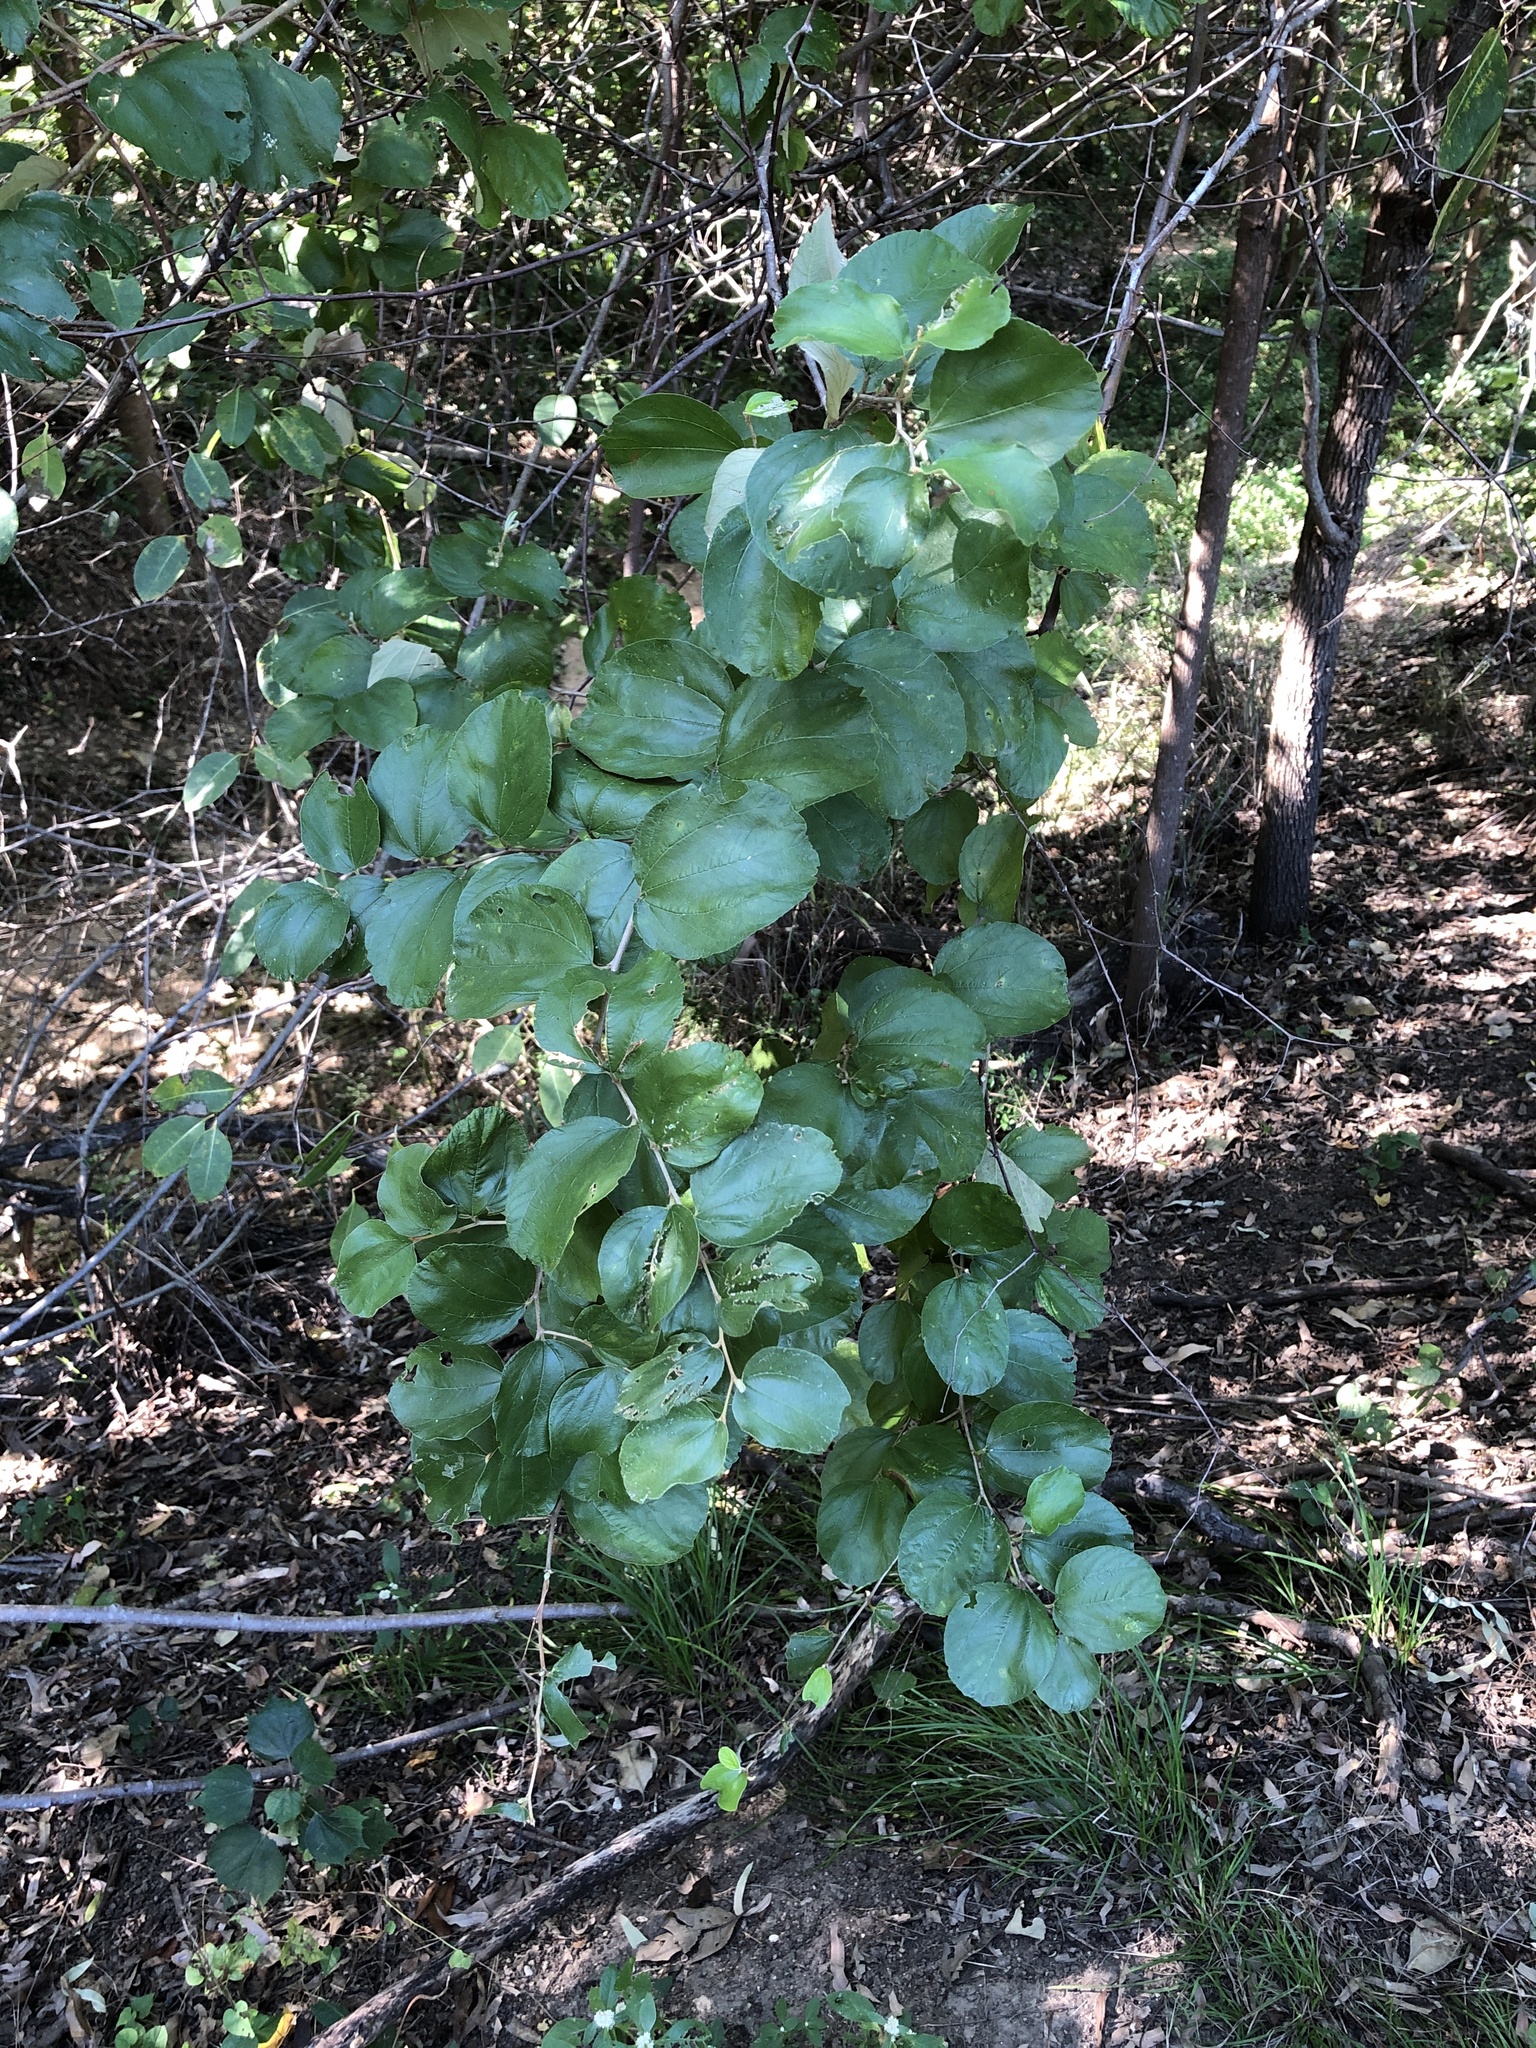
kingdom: Plantae
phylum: Tracheophyta
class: Magnoliopsida
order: Rosales
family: Rhamnaceae
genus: Ziziphus
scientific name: Ziziphus mauritiana
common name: Indian jujube
